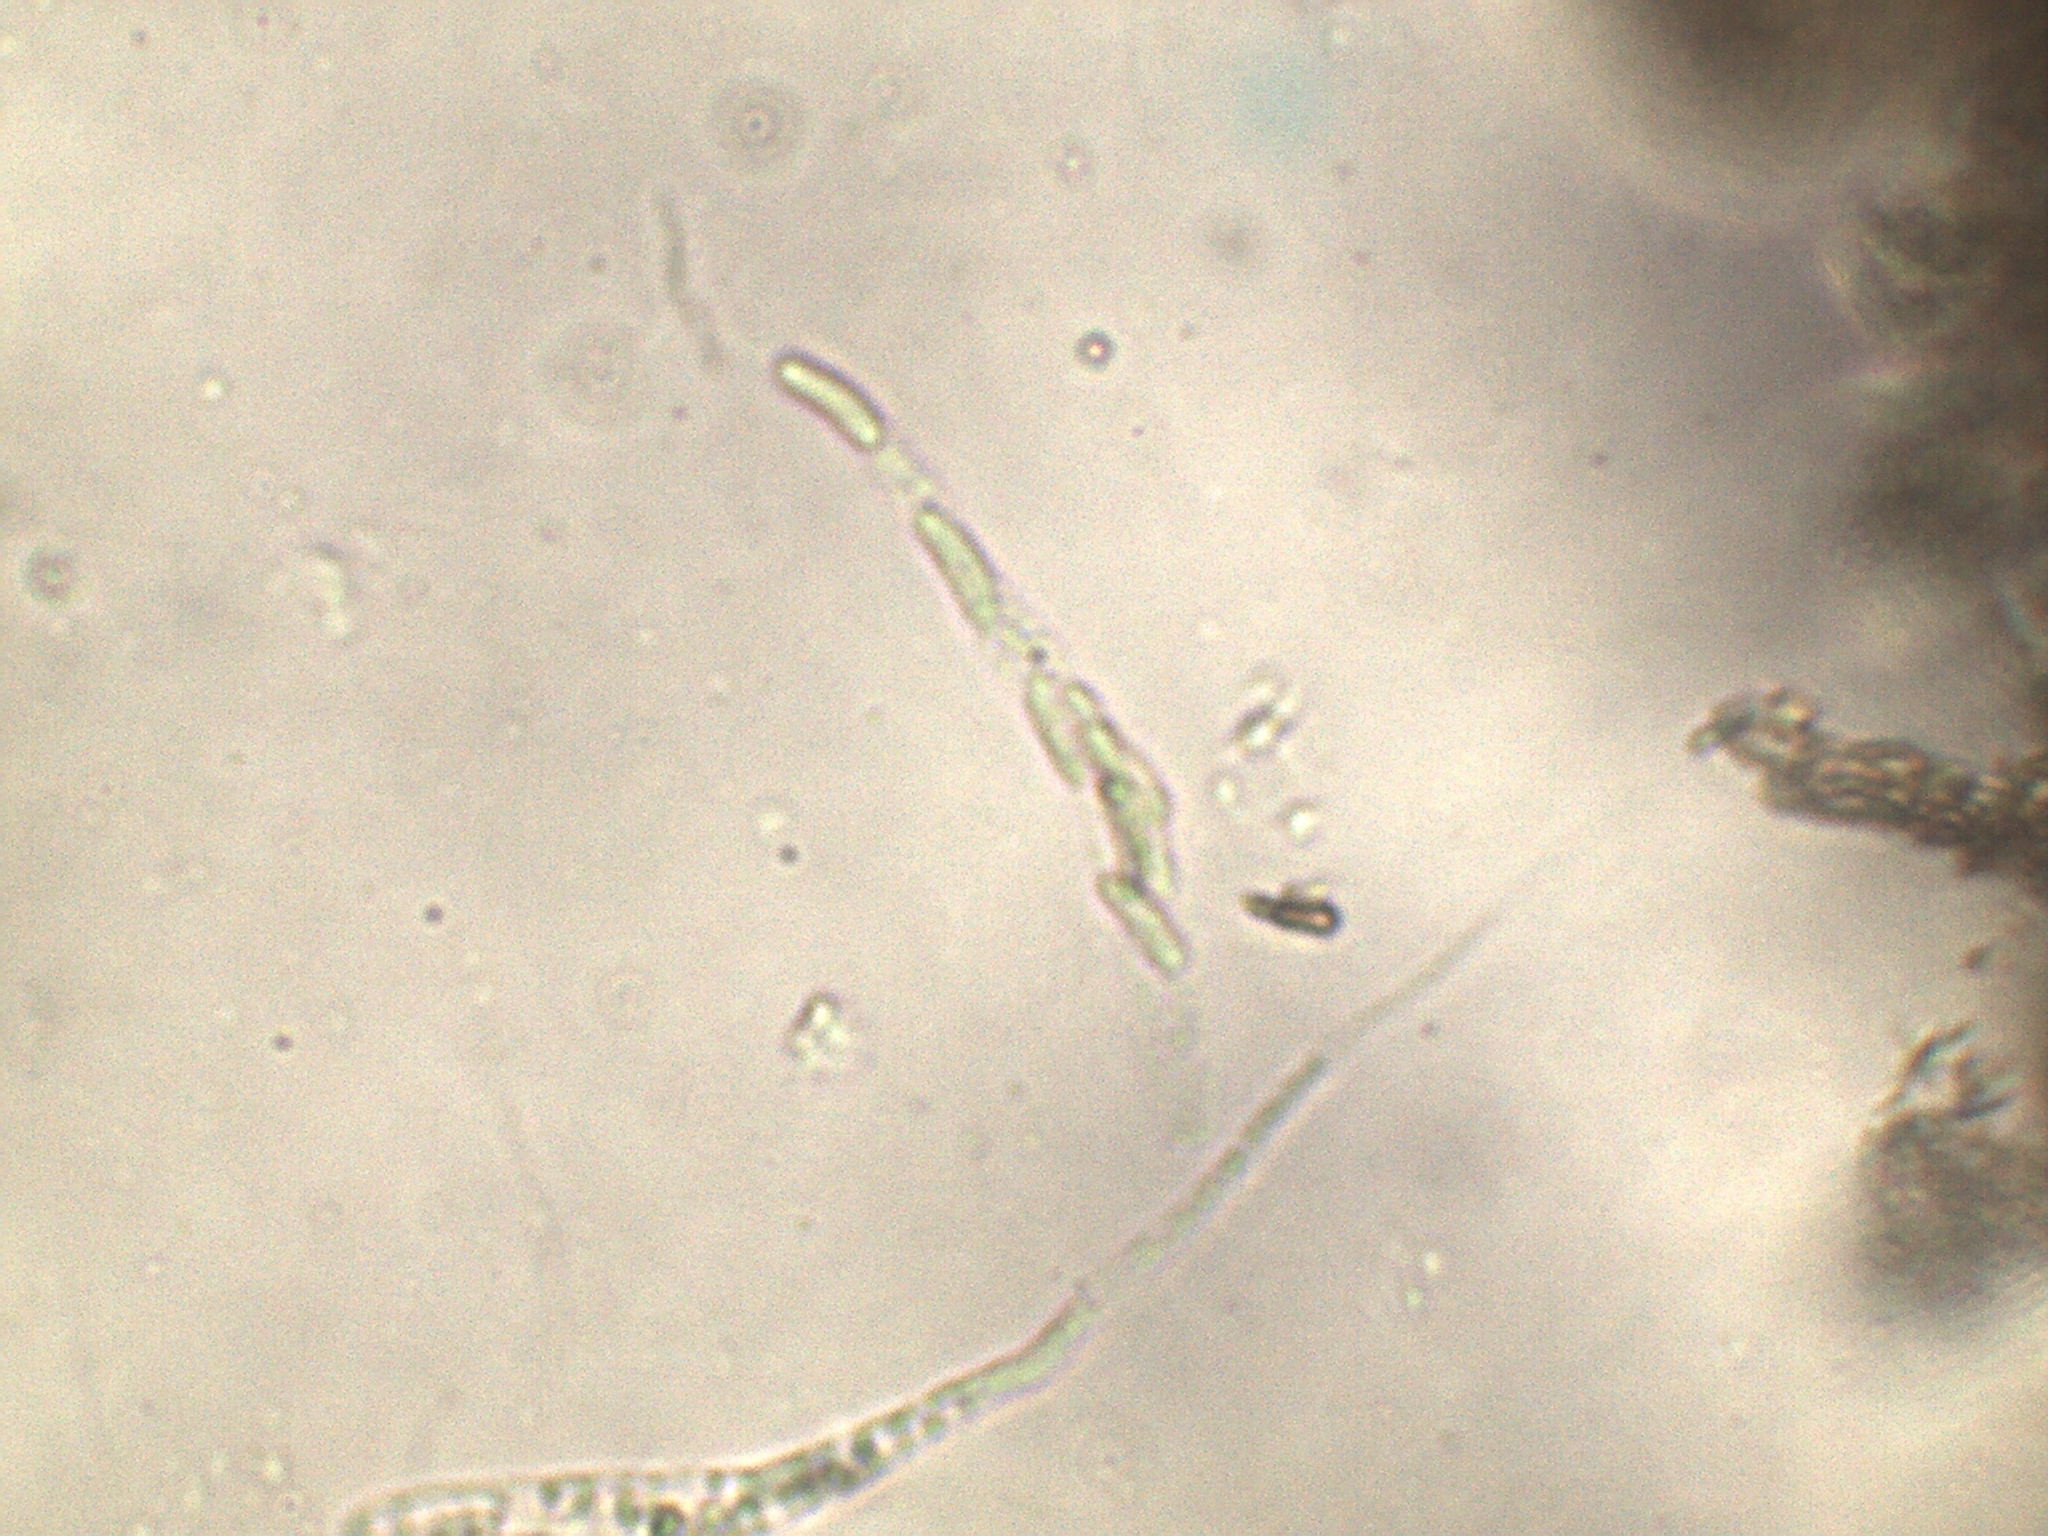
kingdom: Fungi
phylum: Ascomycota
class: Sordariomycetes
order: Xylariales
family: Diatrypaceae
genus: Eutypa
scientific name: Eutypa spinosa
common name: Spiral tarcrust
